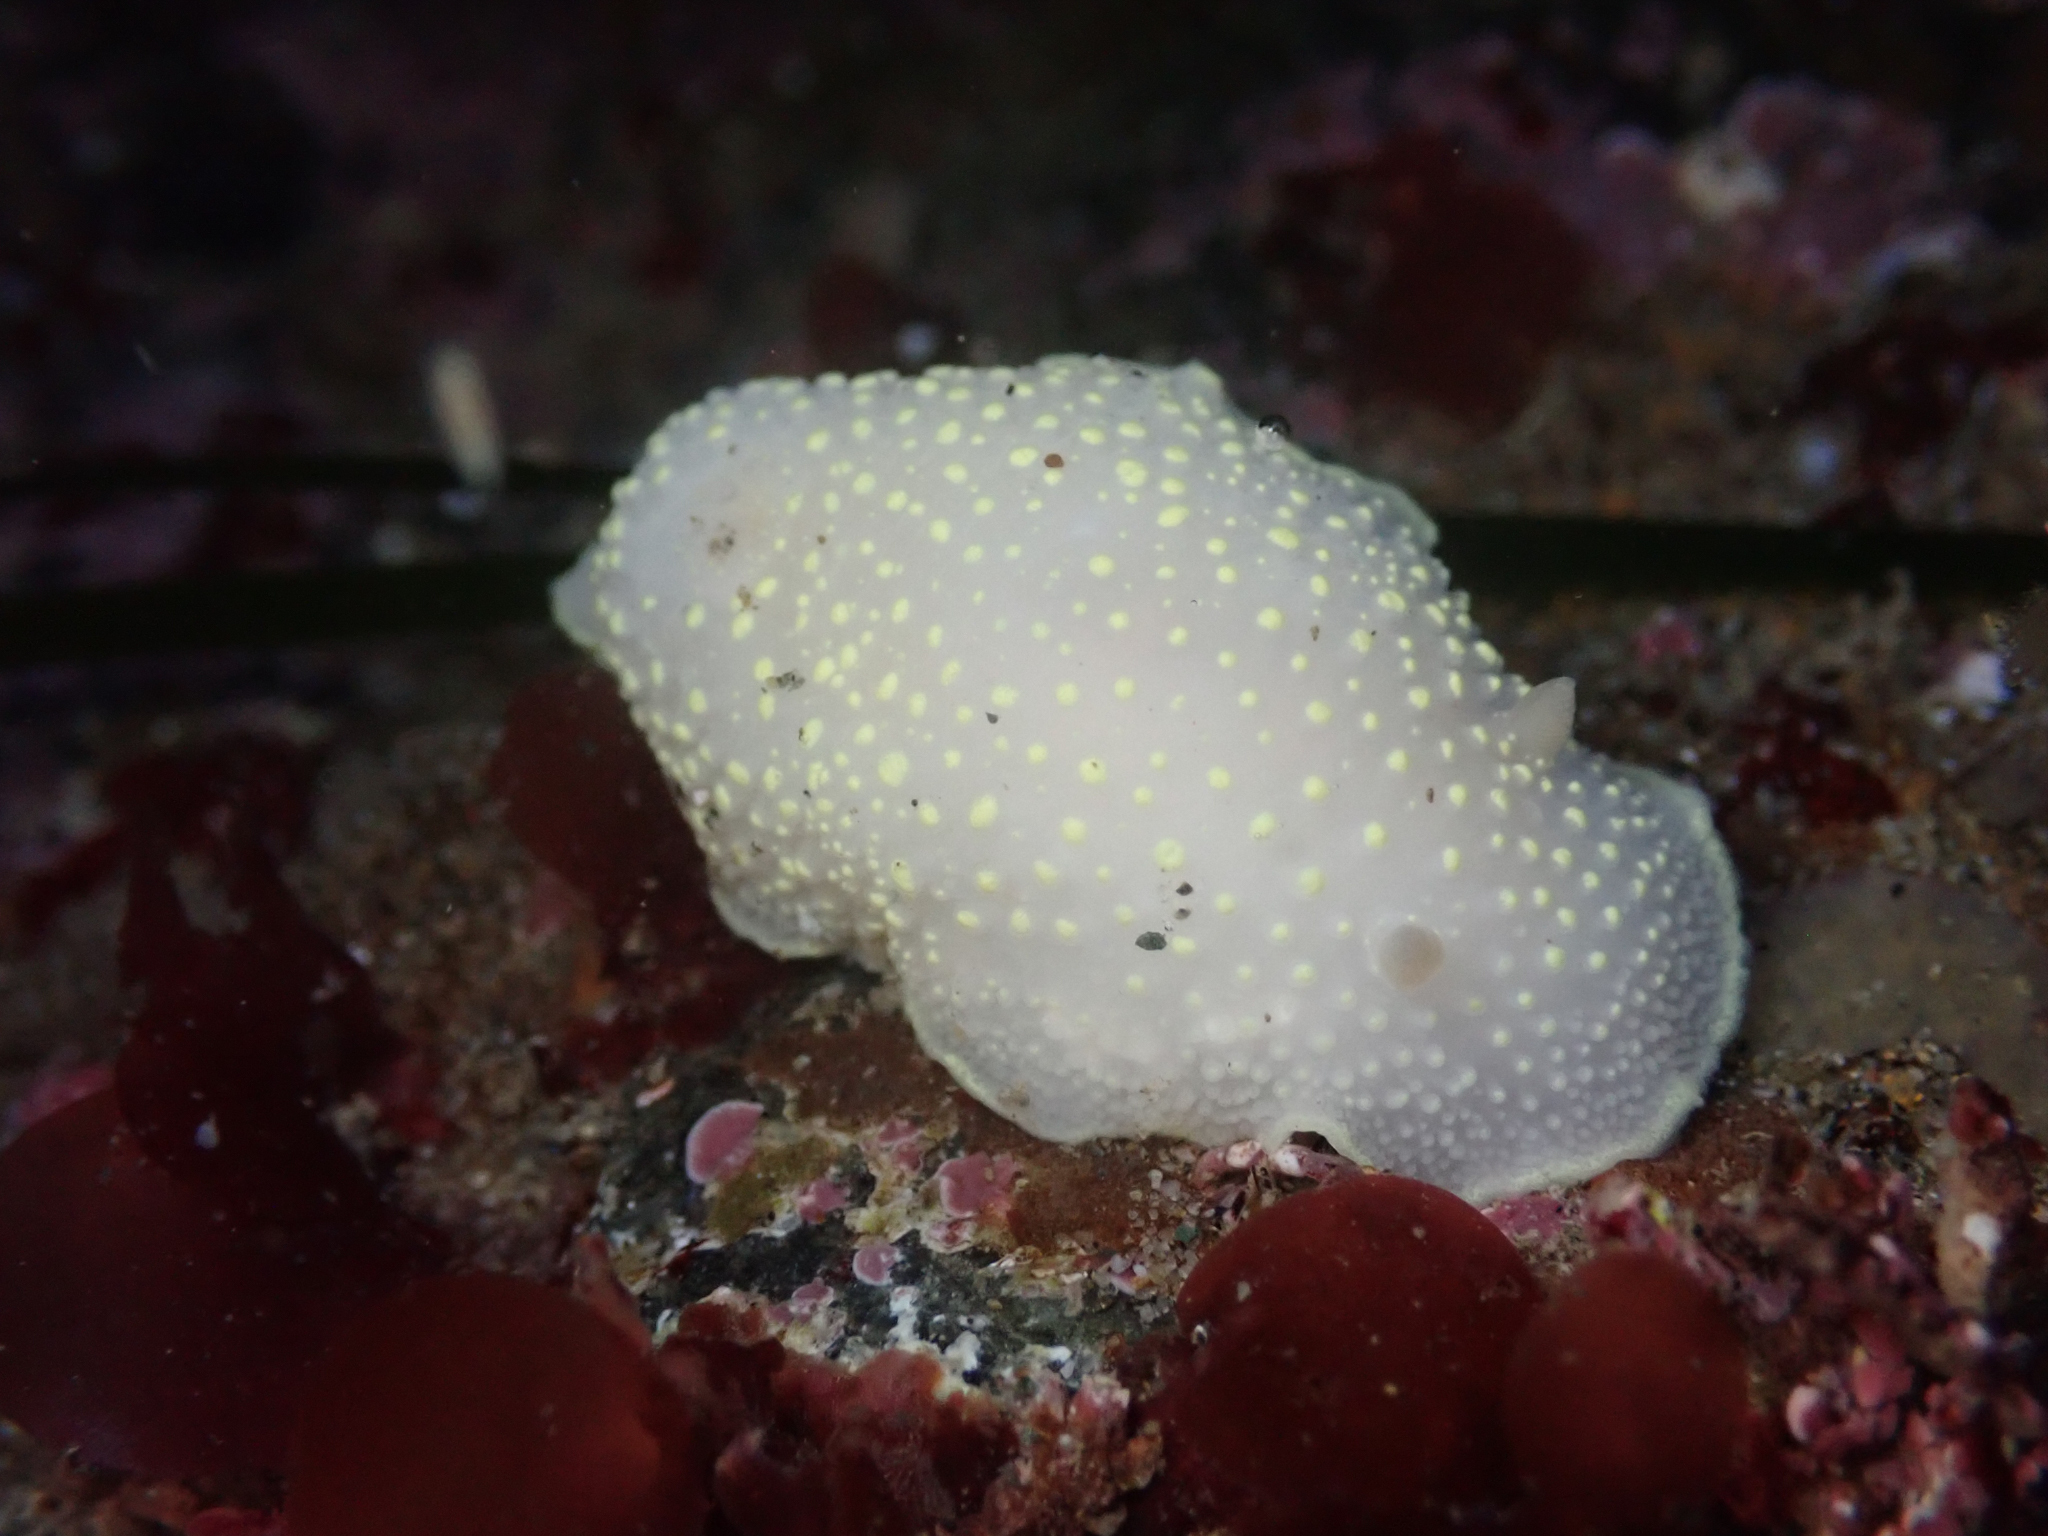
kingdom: Animalia
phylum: Mollusca
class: Gastropoda
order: Nudibranchia
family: Cadlinidae
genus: Cadlina
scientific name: Cadlina luteomarginata
